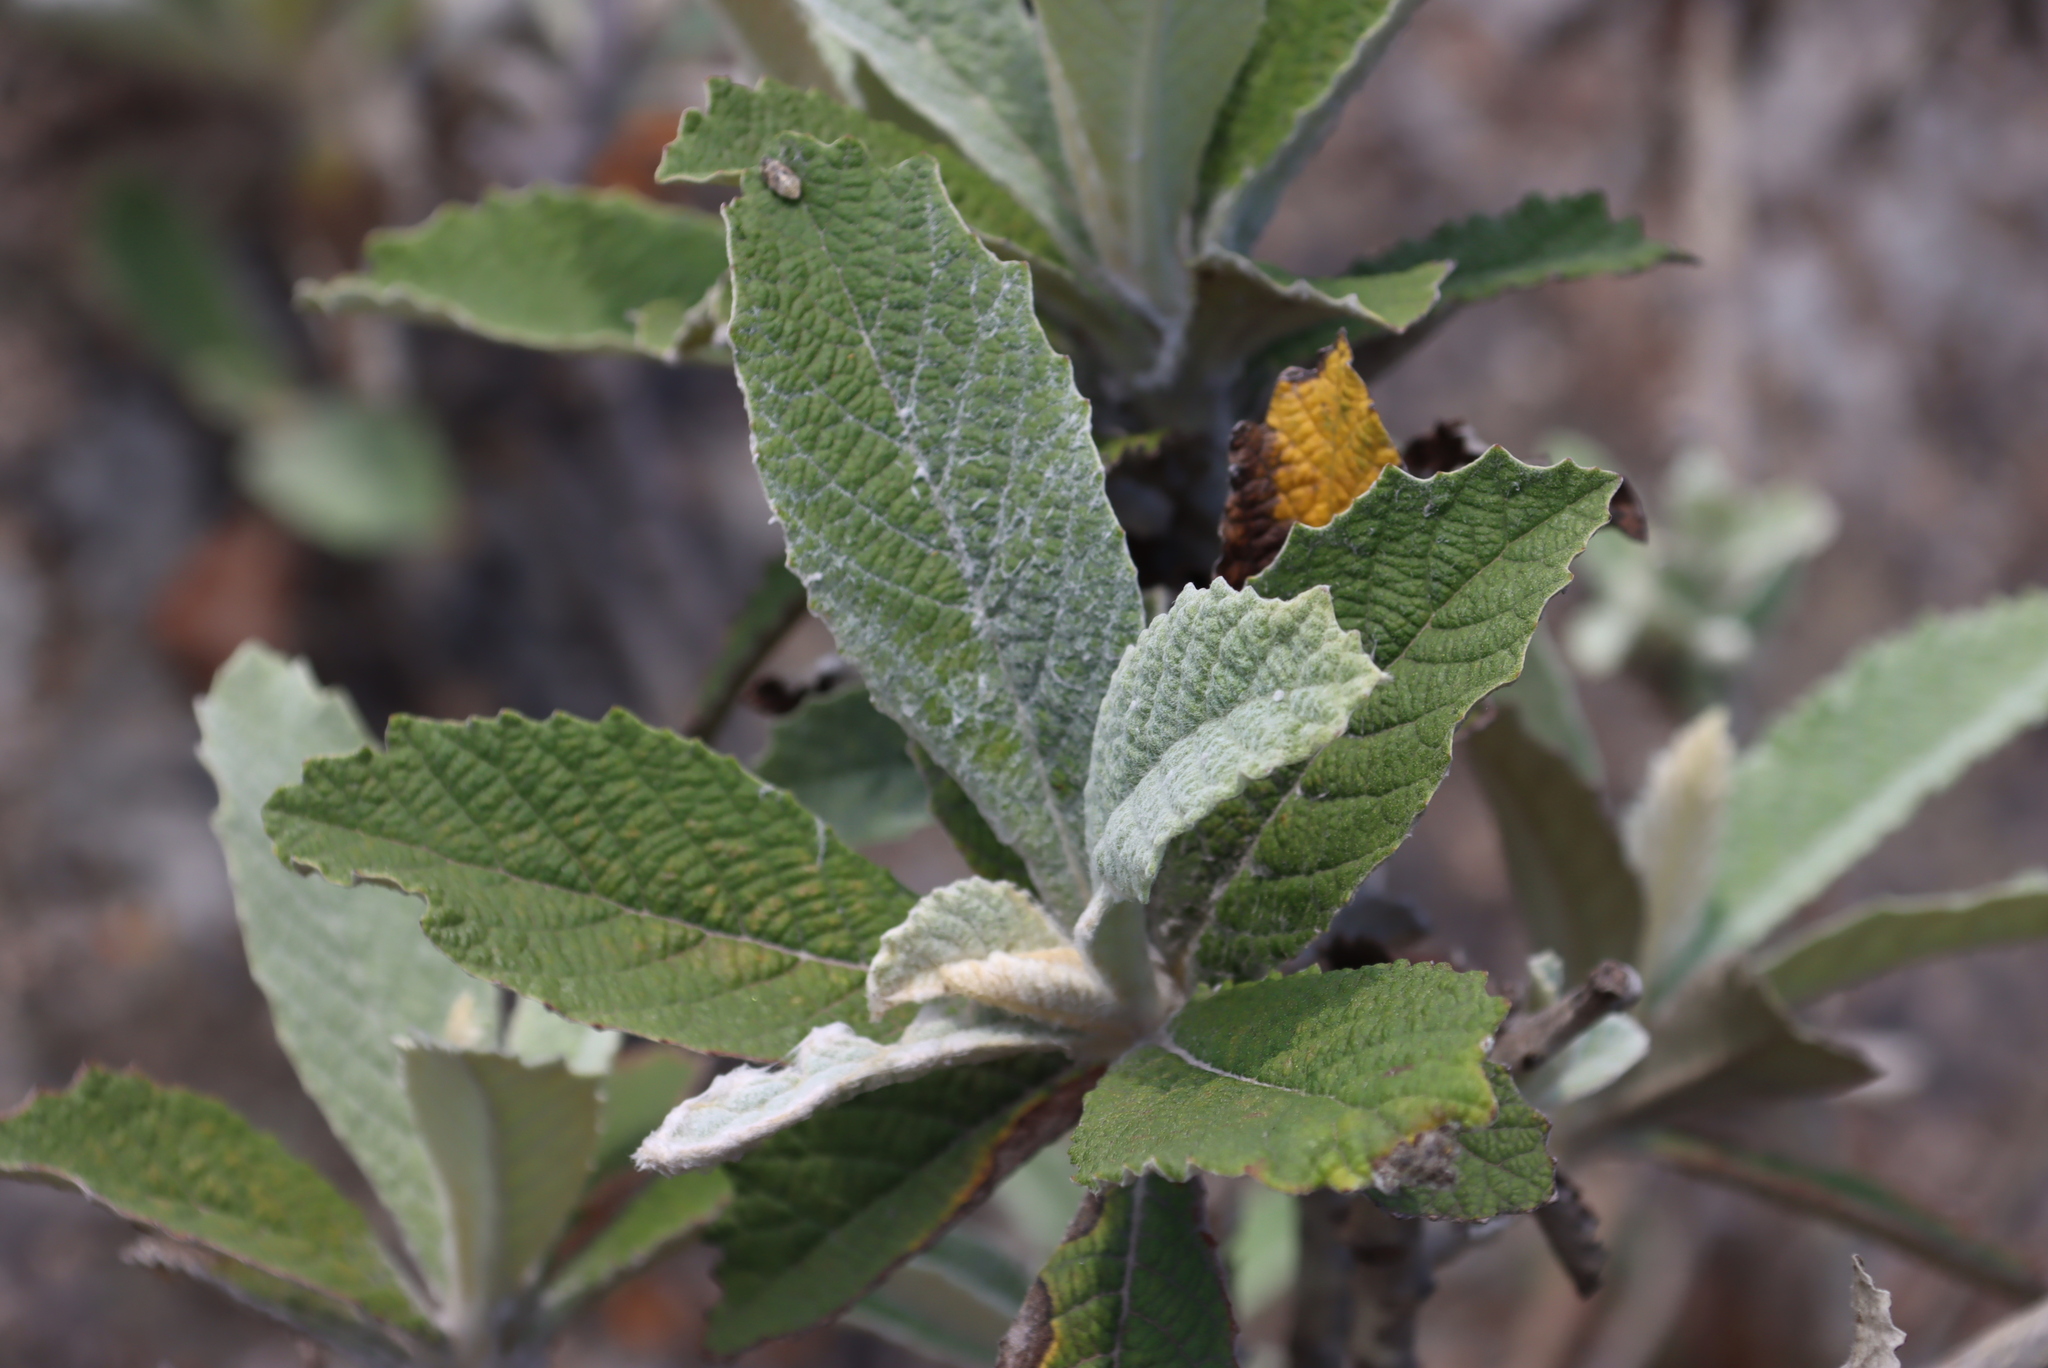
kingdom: Plantae
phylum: Tracheophyta
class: Magnoliopsida
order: Asterales
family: Asteraceae
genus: Tarchonanthus
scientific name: Tarchonanthus trilobus
